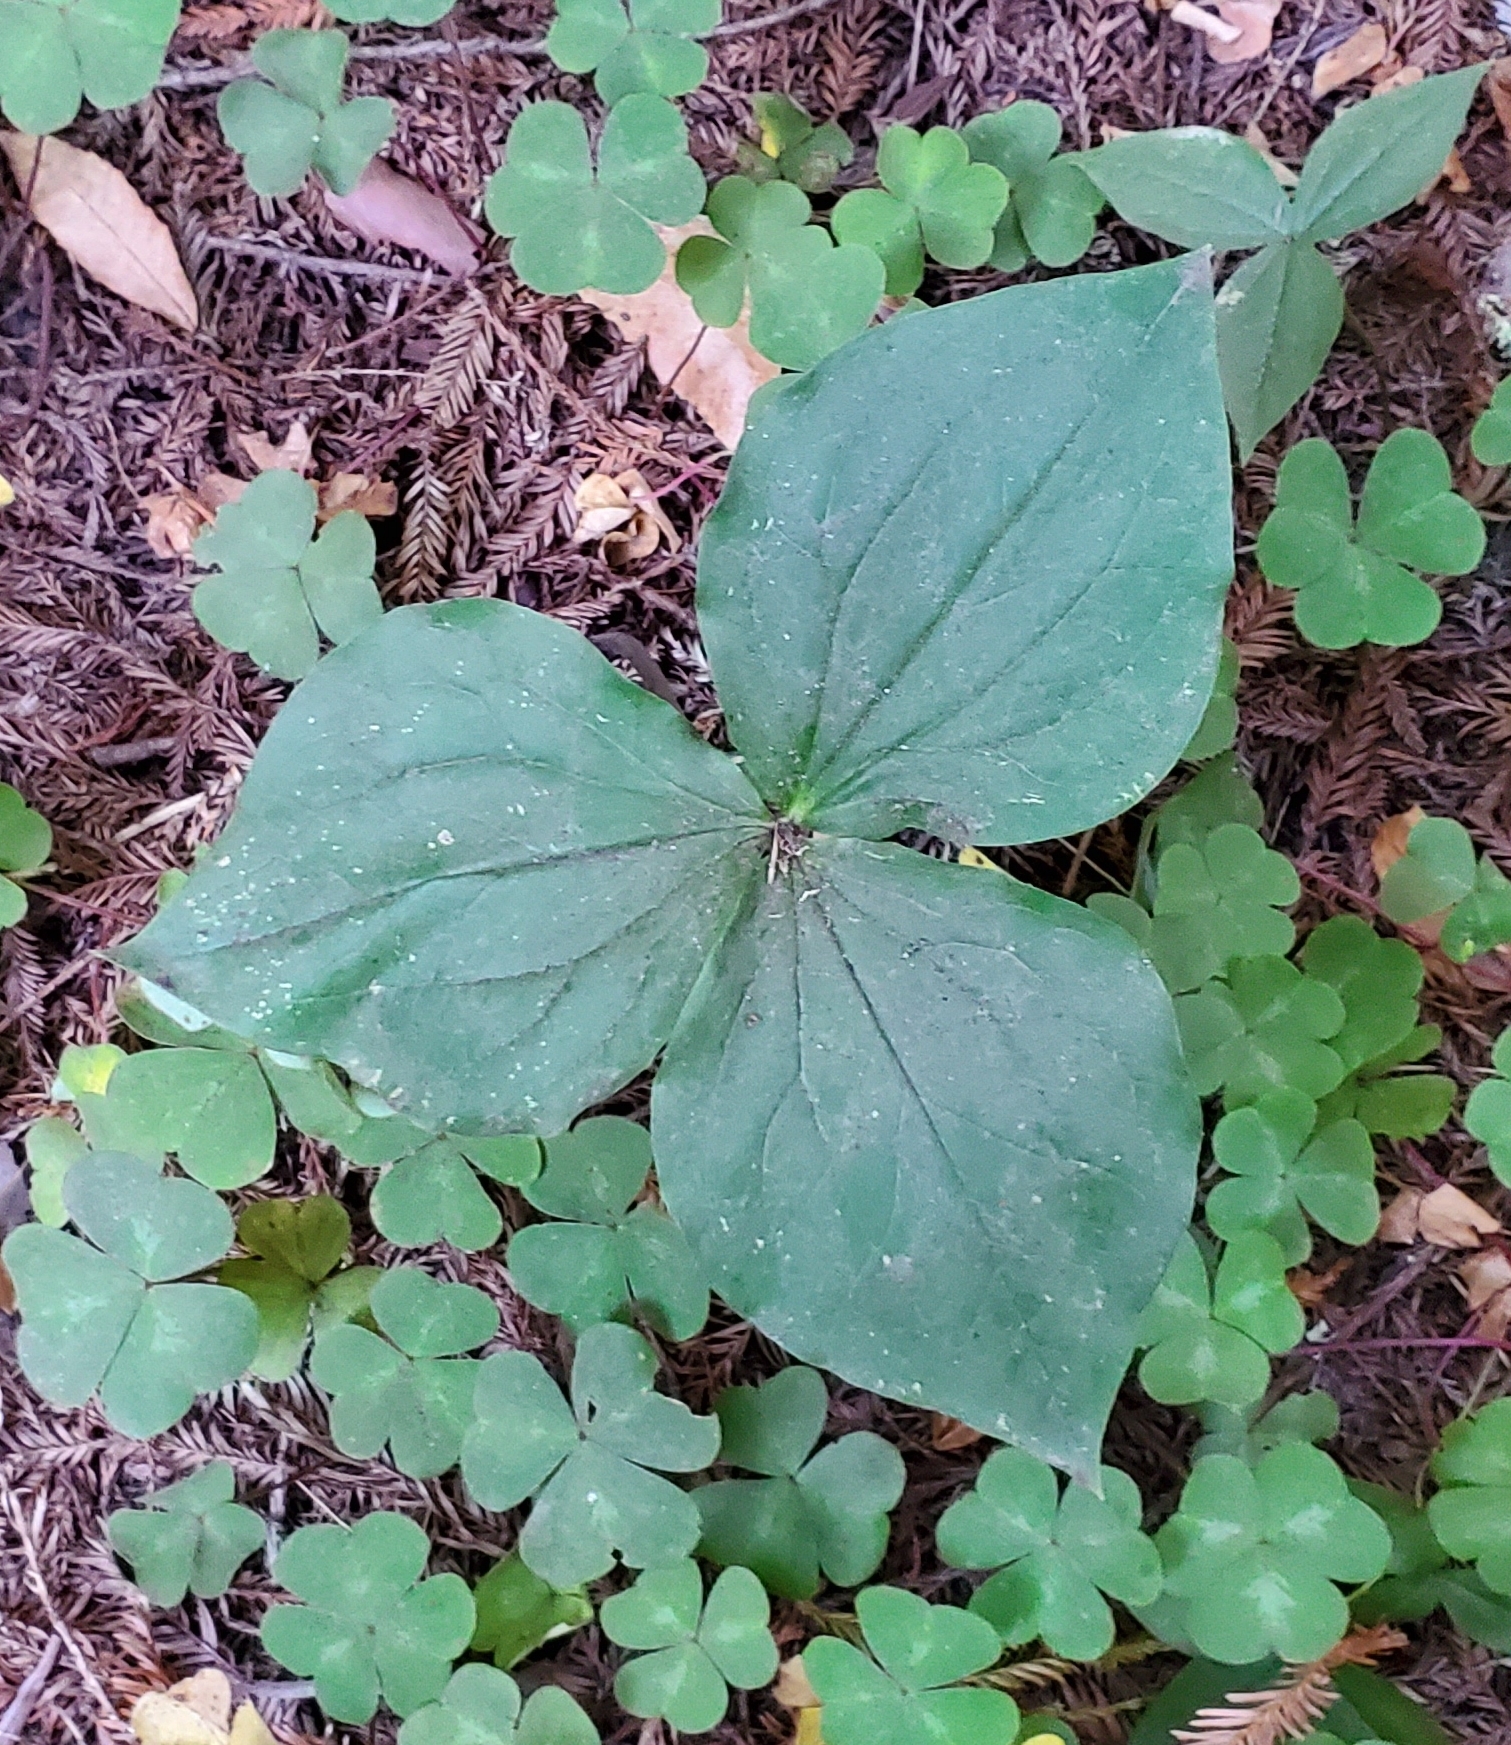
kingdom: Plantae
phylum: Tracheophyta
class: Liliopsida
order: Liliales
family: Melanthiaceae
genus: Trillium
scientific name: Trillium ovatum
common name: Pacific trillium
